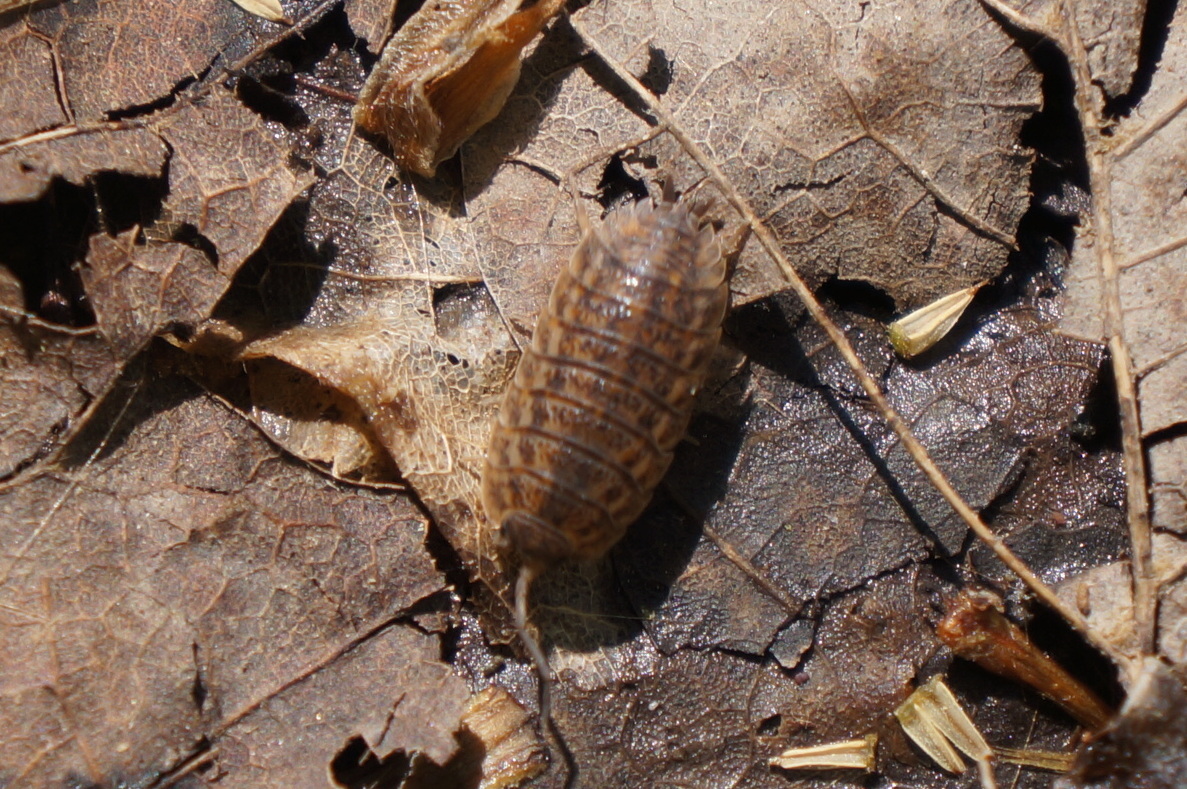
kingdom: Animalia
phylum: Arthropoda
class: Malacostraca
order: Isopoda
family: Trachelipodidae
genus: Trachelipus
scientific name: Trachelipus rathkii
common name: Isopod
